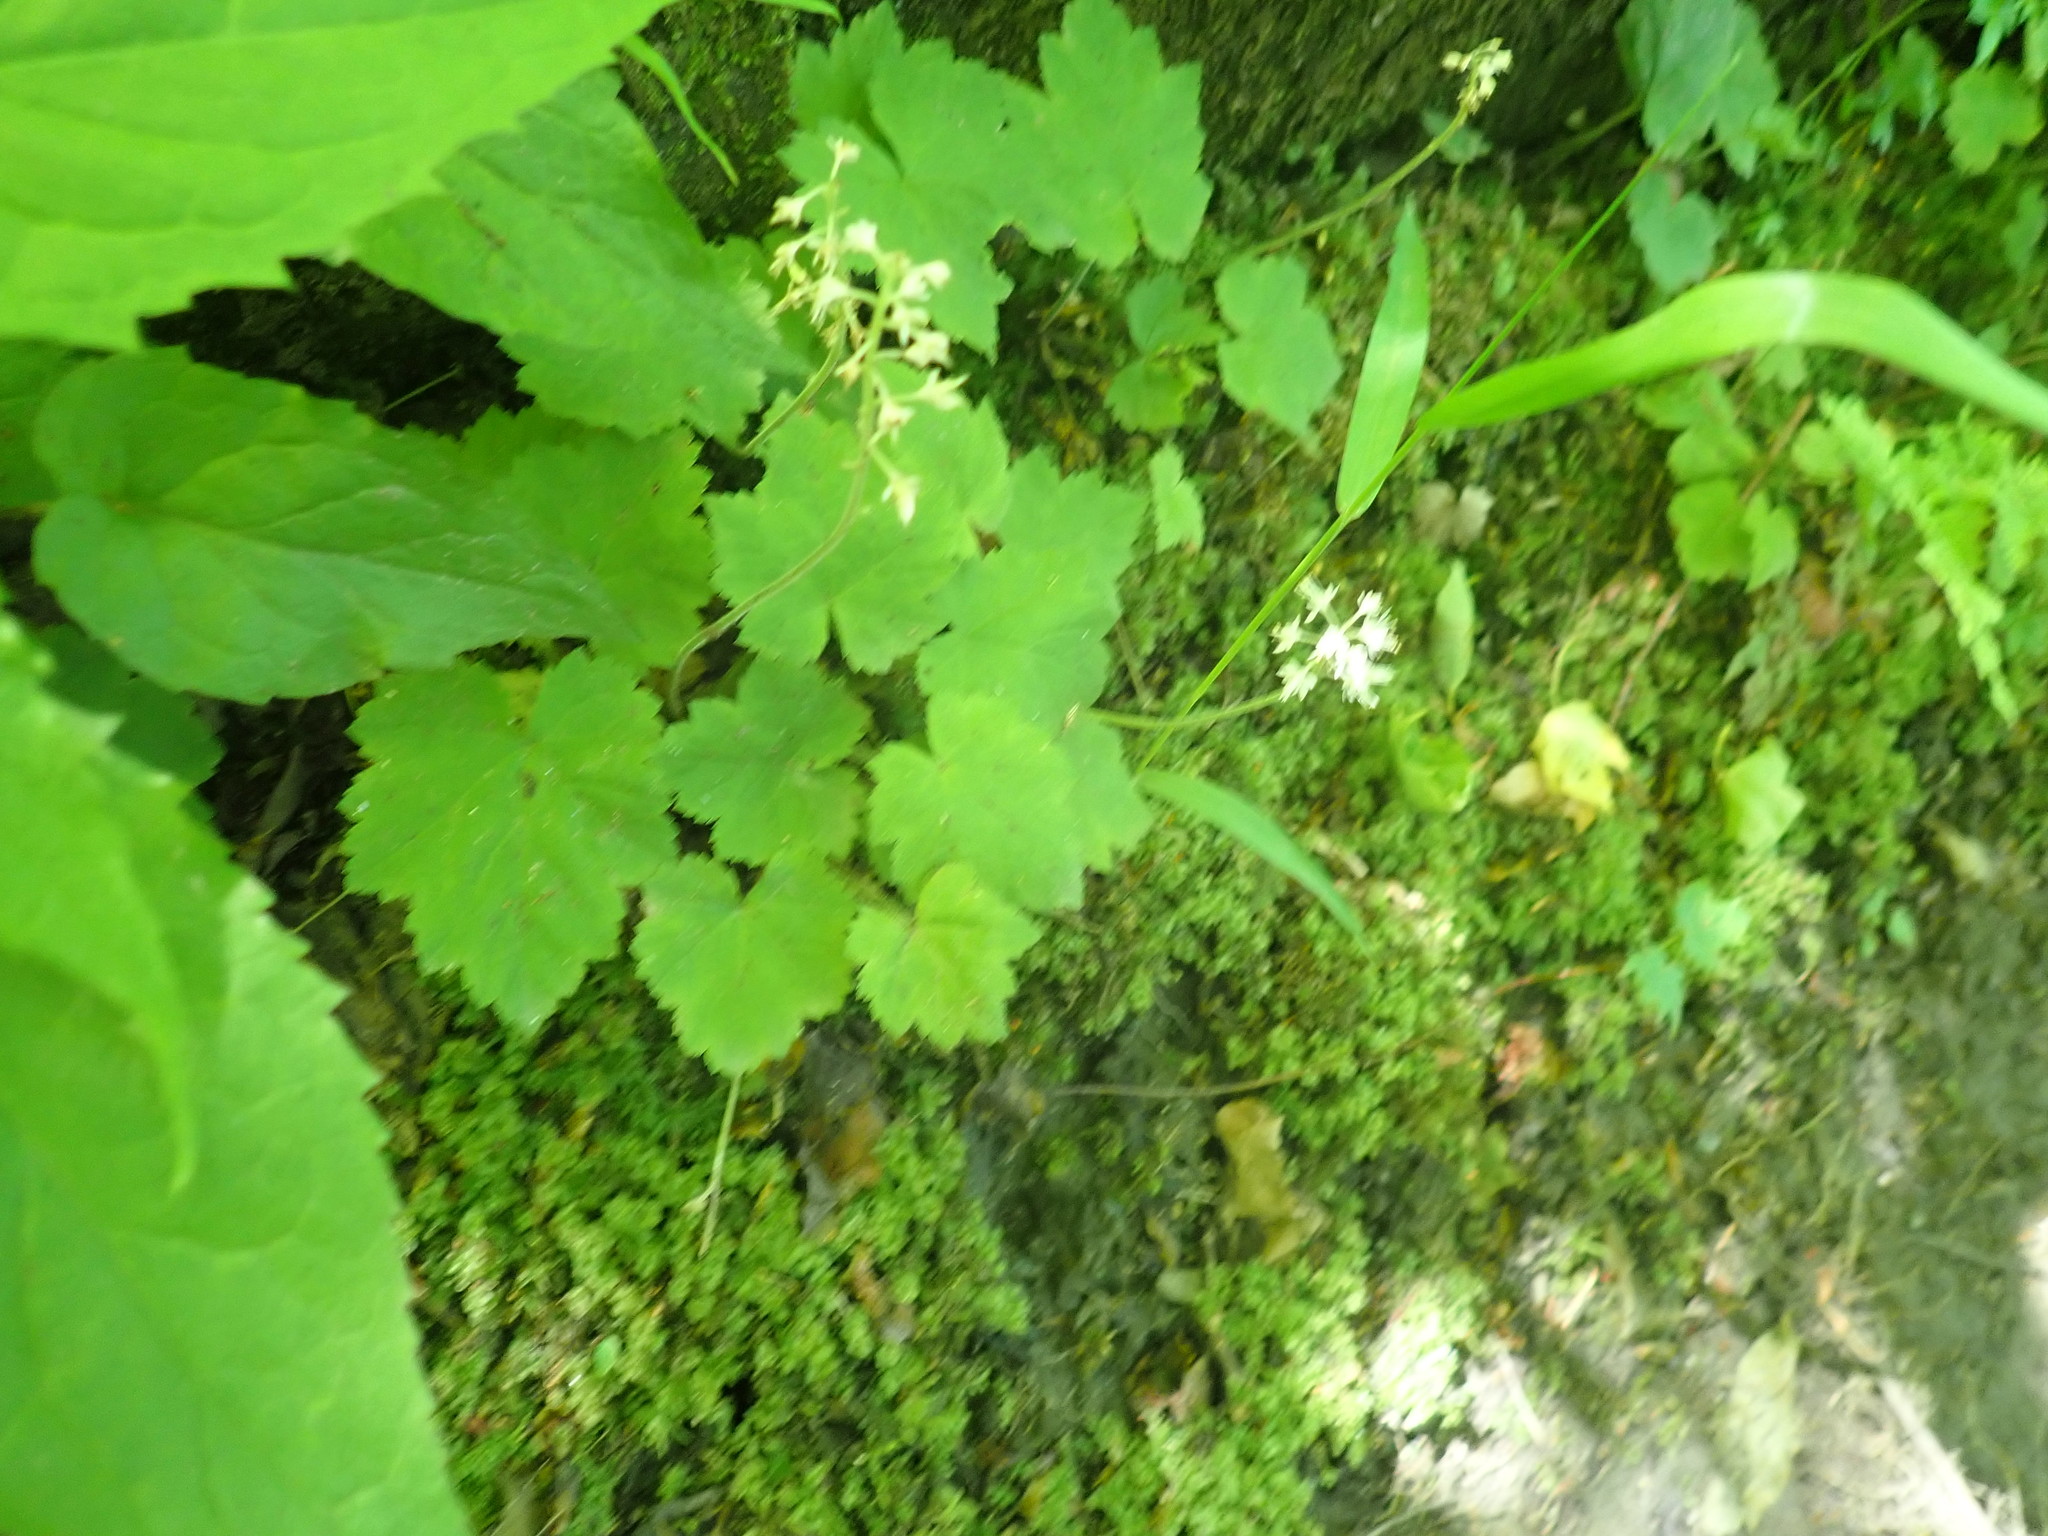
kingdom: Plantae
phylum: Tracheophyta
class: Magnoliopsida
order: Saxifragales
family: Saxifragaceae
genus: Tiarella
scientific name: Tiarella stolonifera
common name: Stoloniferous foamflower
